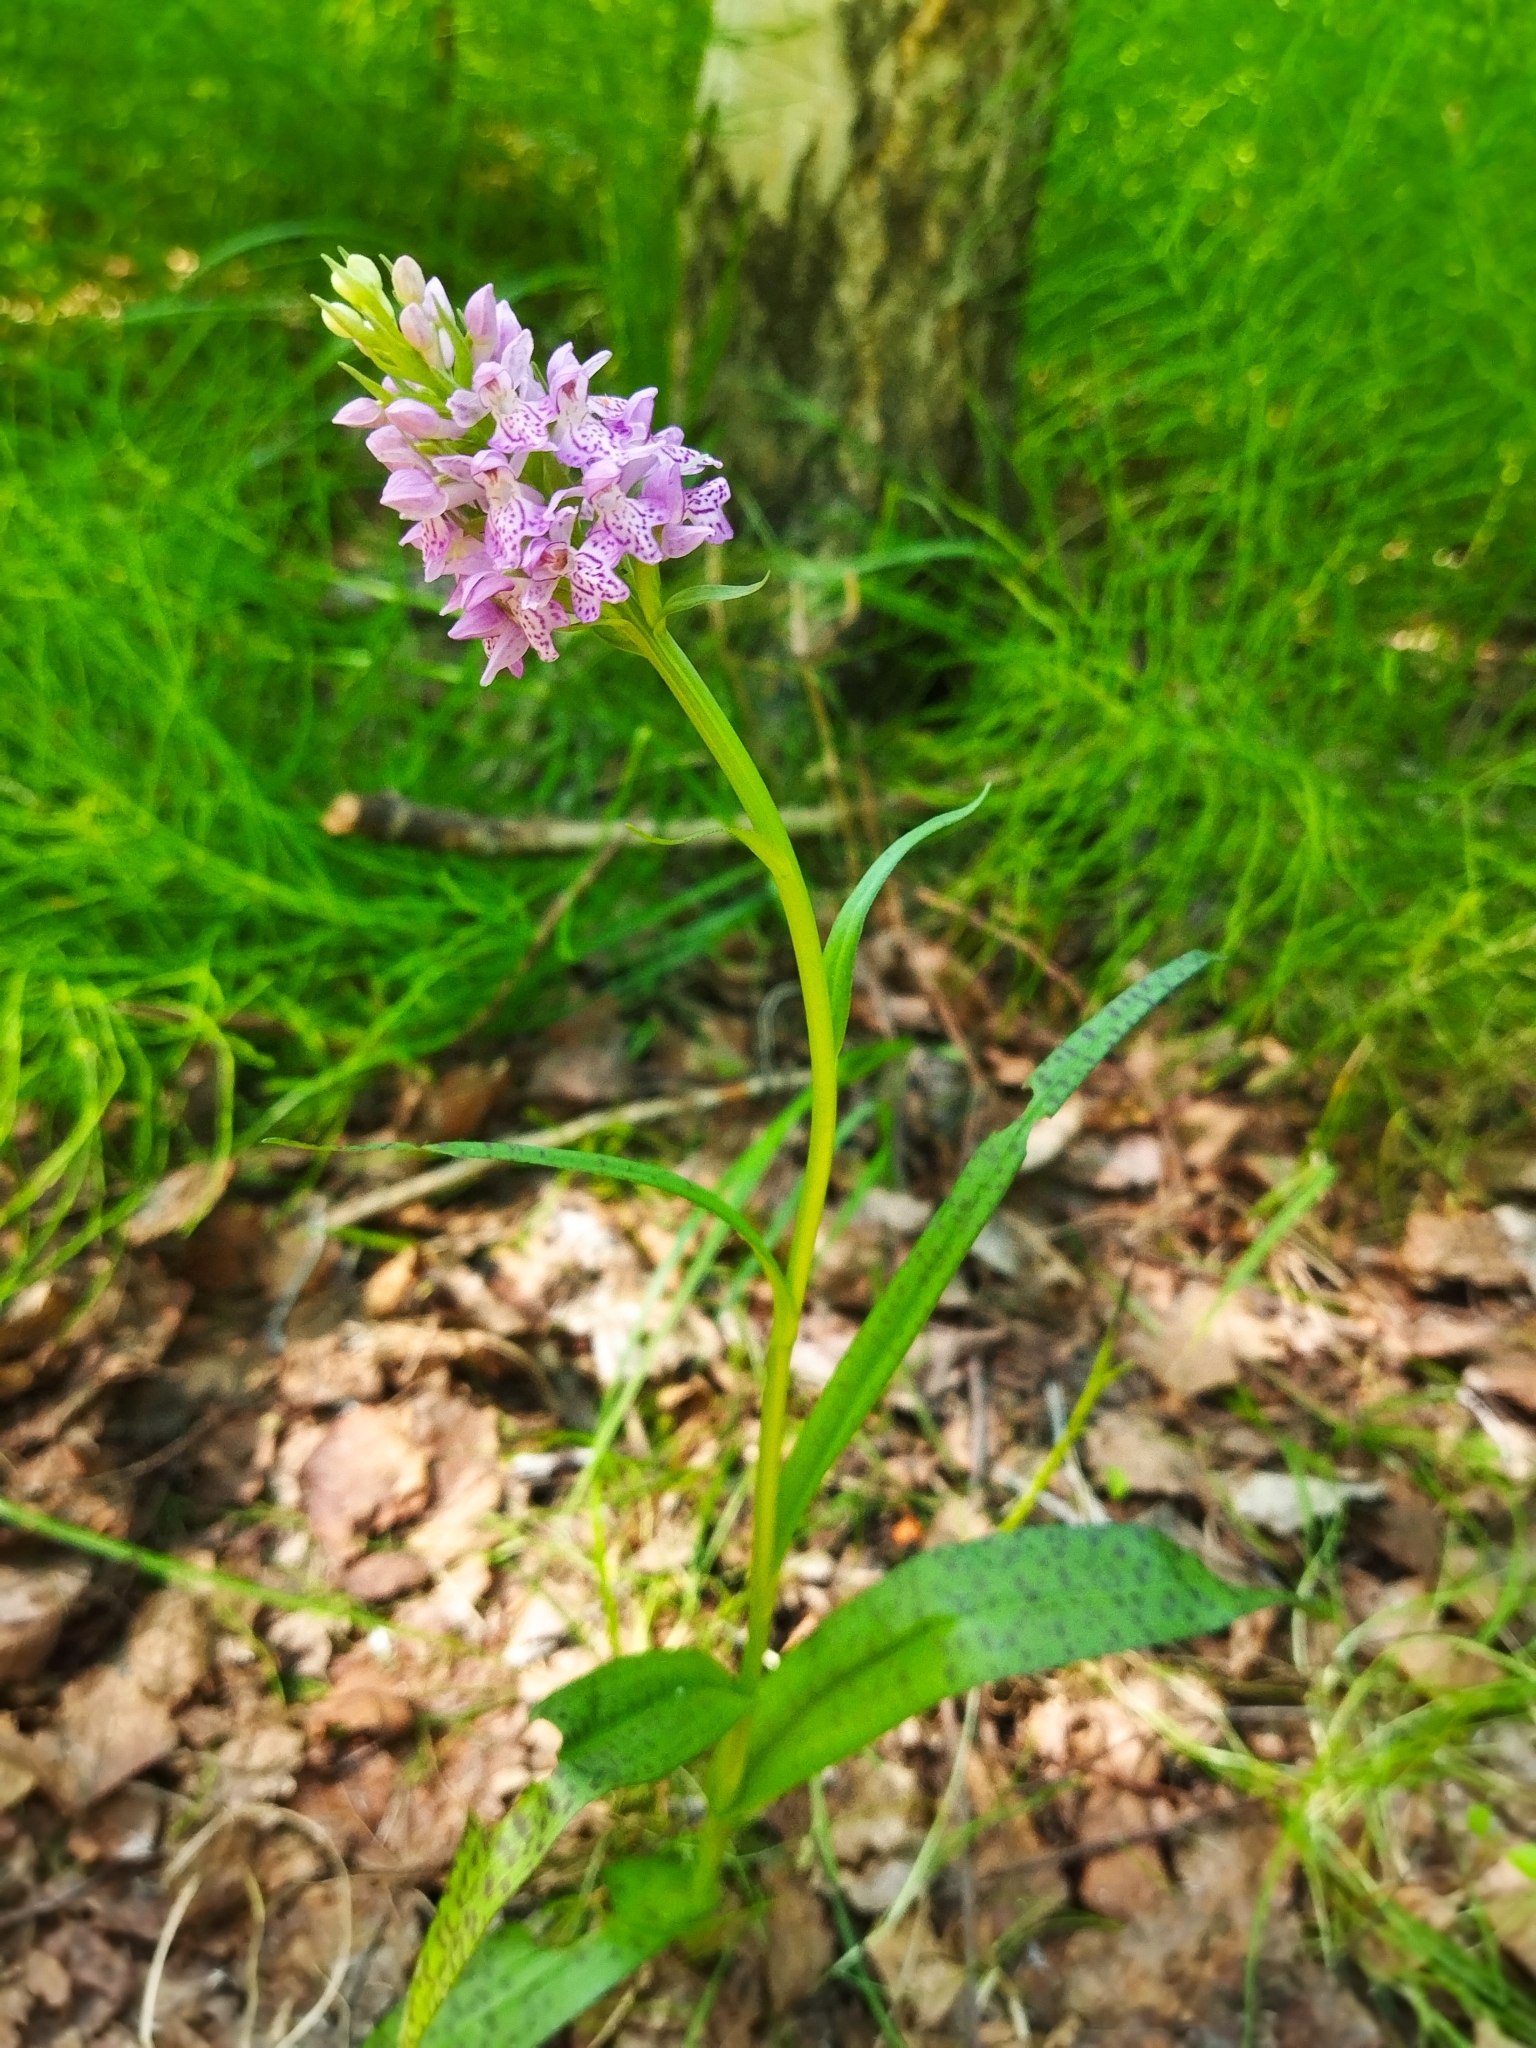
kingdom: Plantae
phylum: Tracheophyta
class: Liliopsida
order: Asparagales
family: Orchidaceae
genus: Dactylorhiza
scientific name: Dactylorhiza majalis
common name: Marsh orchid
